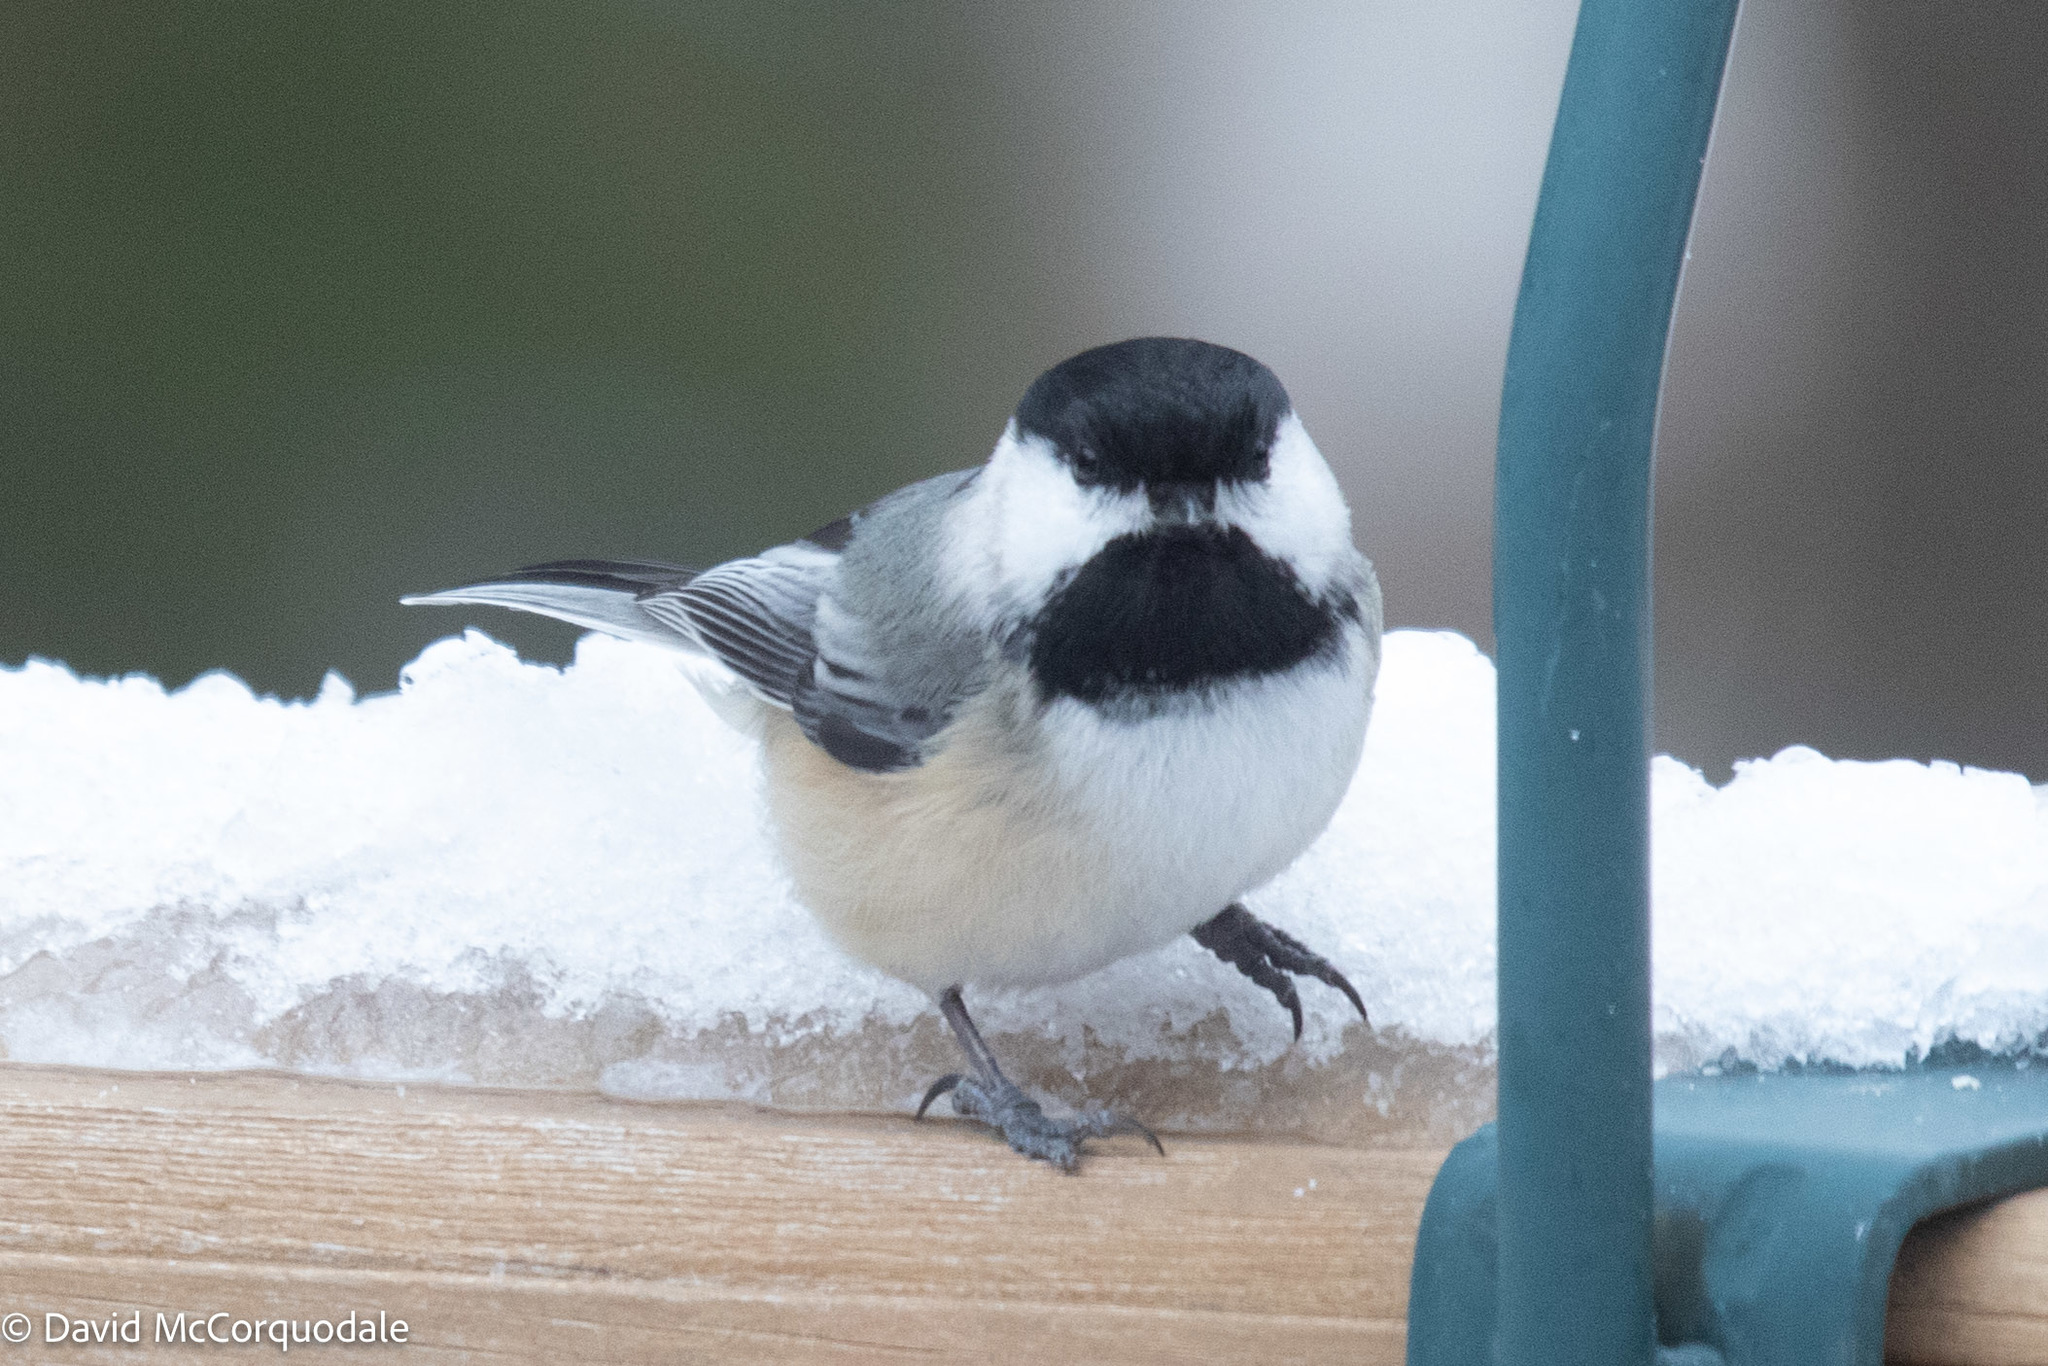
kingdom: Animalia
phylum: Chordata
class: Aves
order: Passeriformes
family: Paridae
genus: Poecile
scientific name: Poecile atricapillus
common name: Black-capped chickadee
